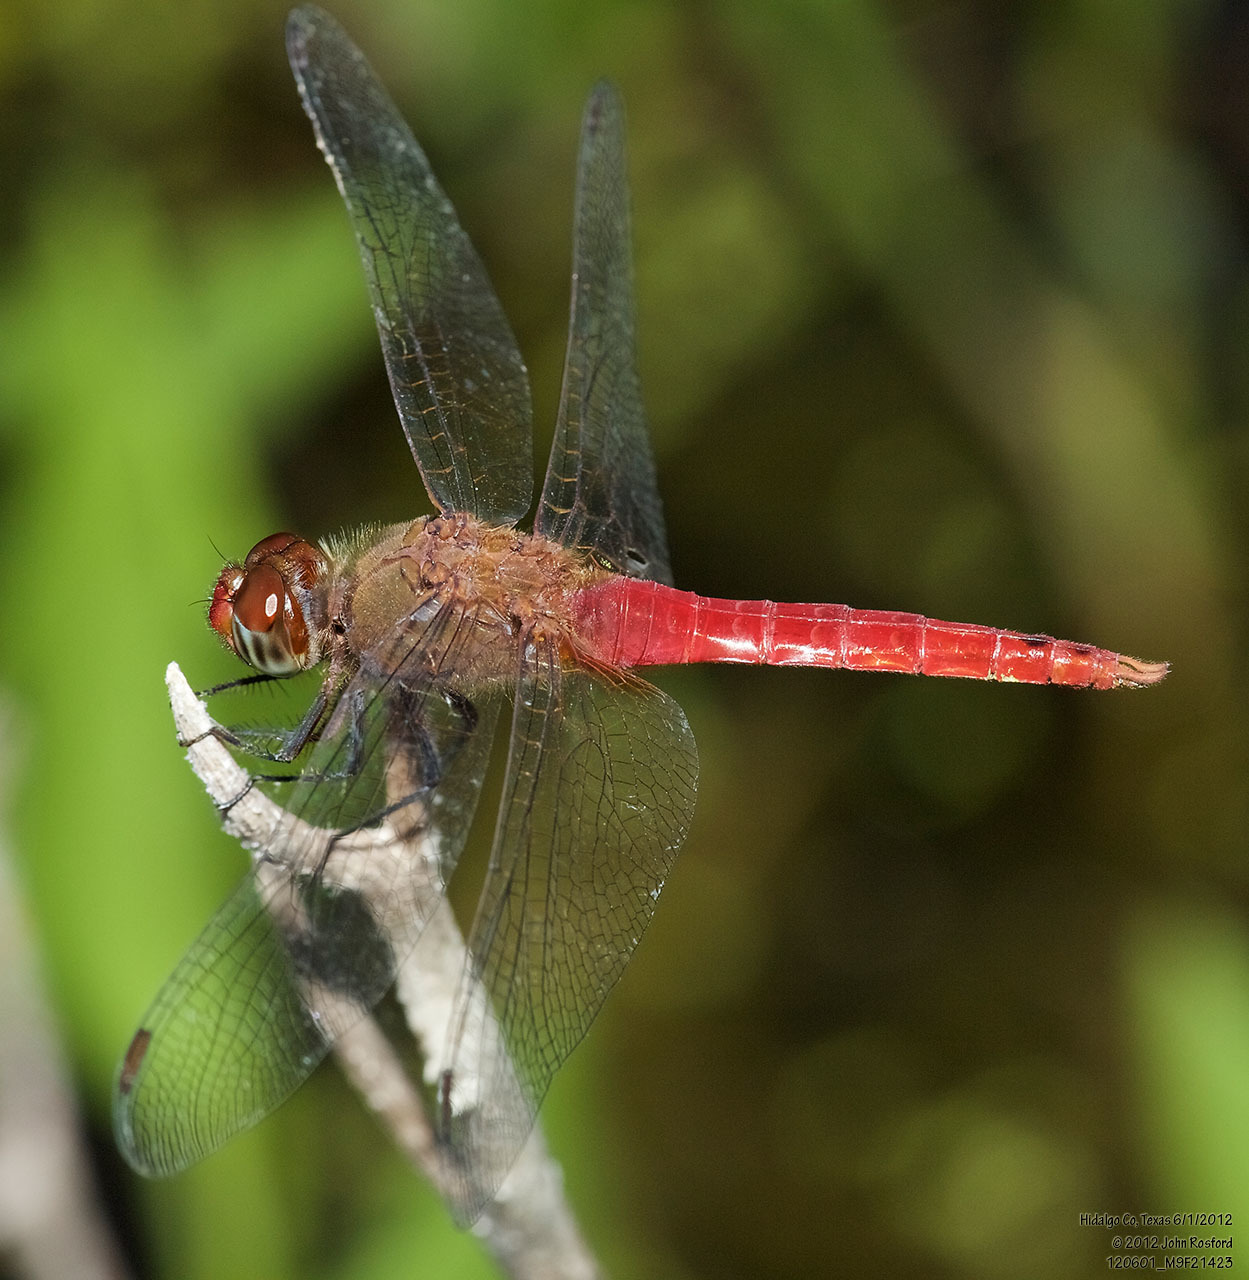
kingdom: Animalia
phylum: Arthropoda
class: Insecta
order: Odonata
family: Libellulidae
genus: Brachymesia
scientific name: Brachymesia furcata
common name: Red-taled pennant
